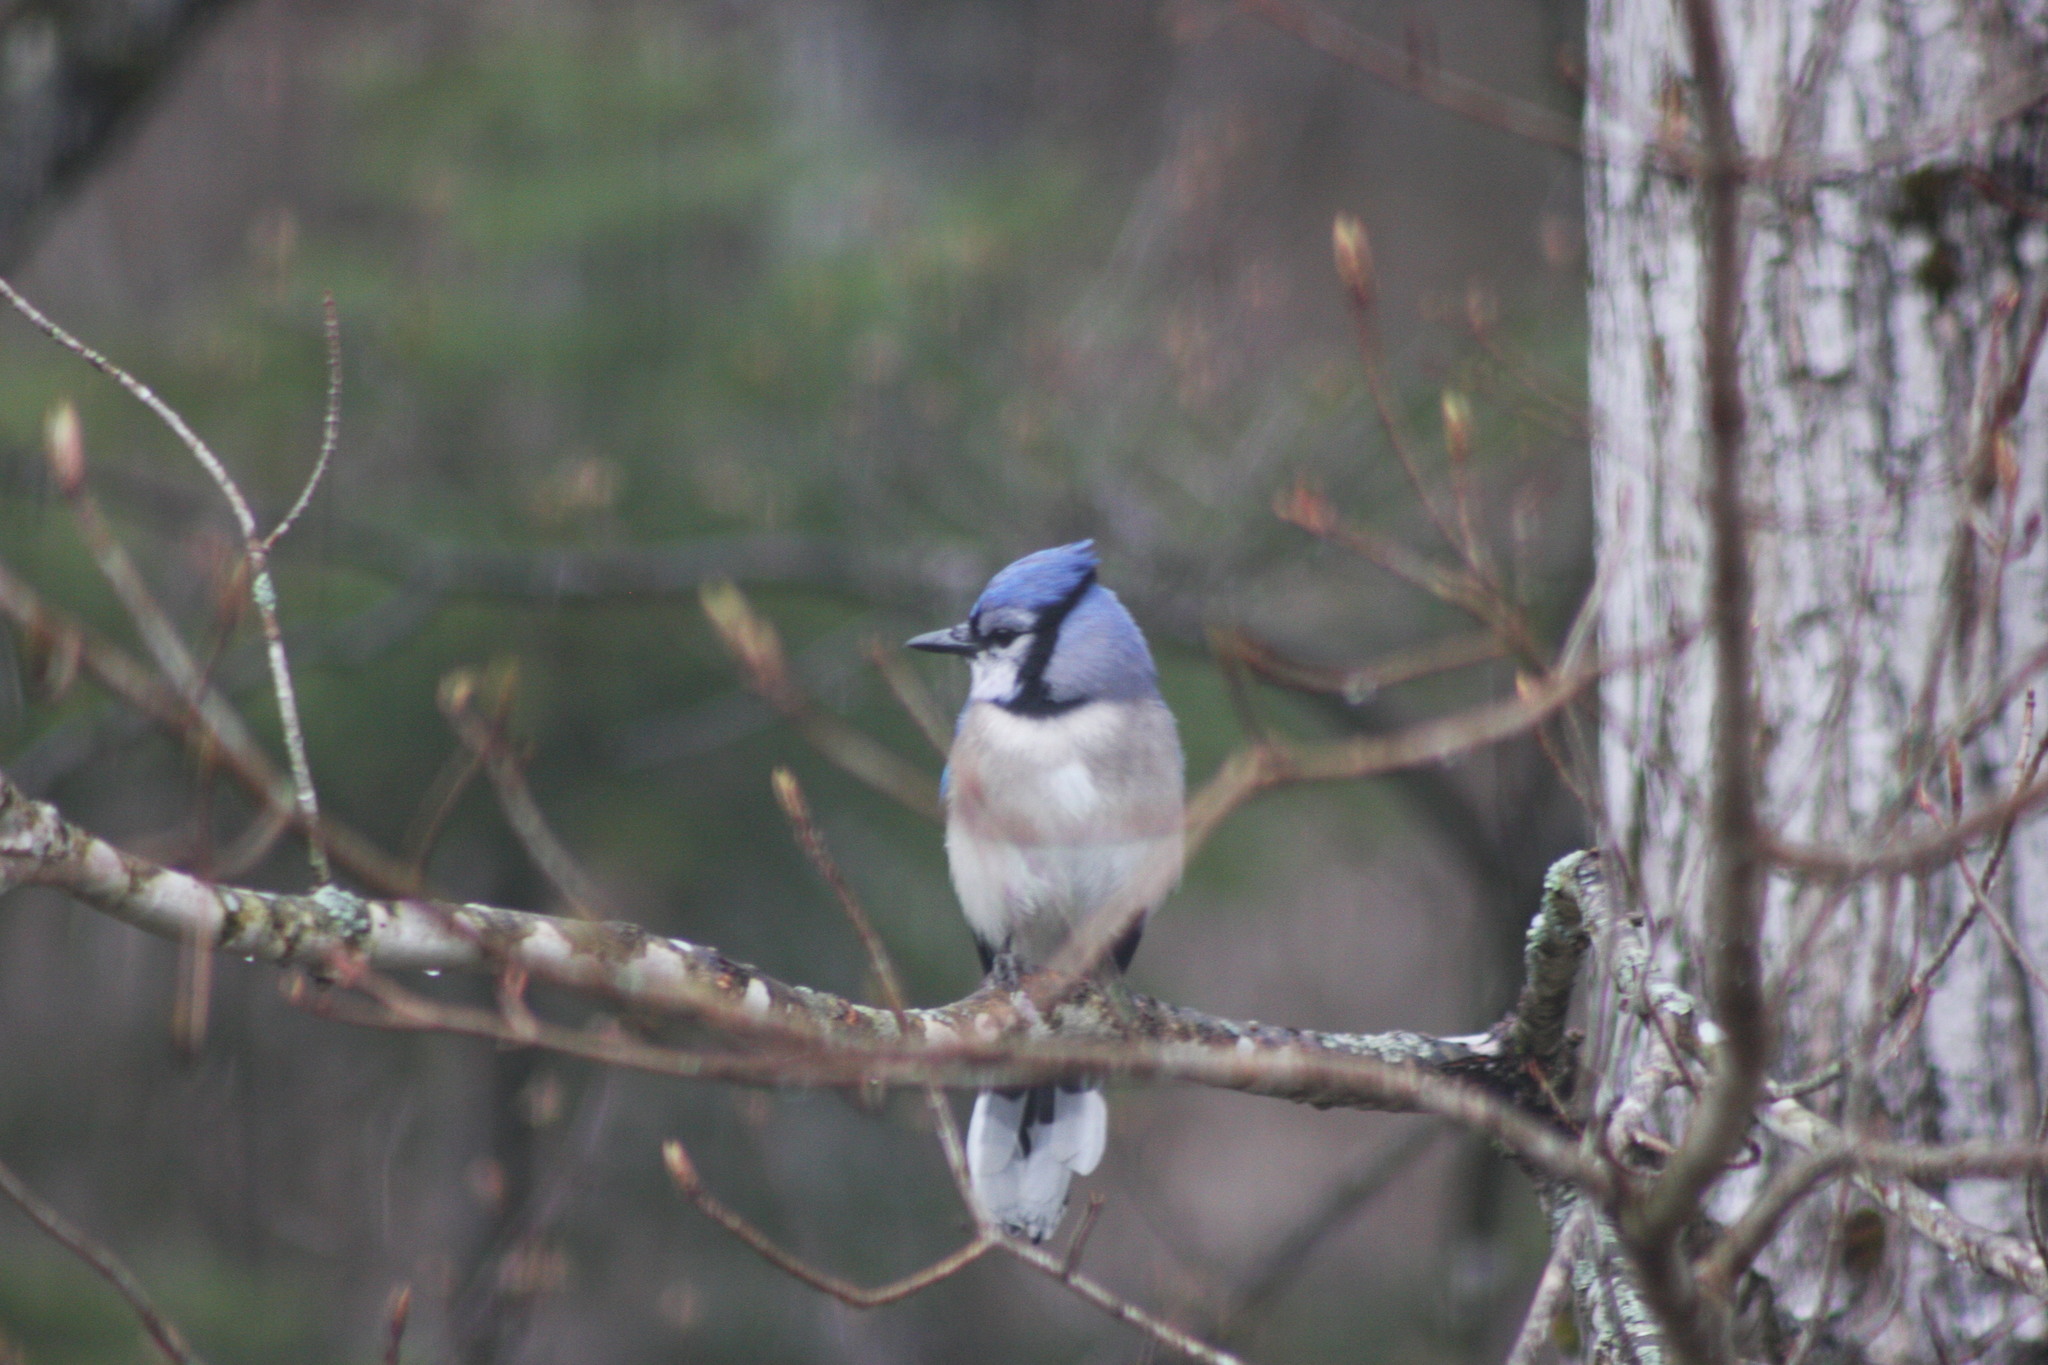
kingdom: Animalia
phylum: Chordata
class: Aves
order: Passeriformes
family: Corvidae
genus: Cyanocitta
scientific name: Cyanocitta cristata
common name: Blue jay
